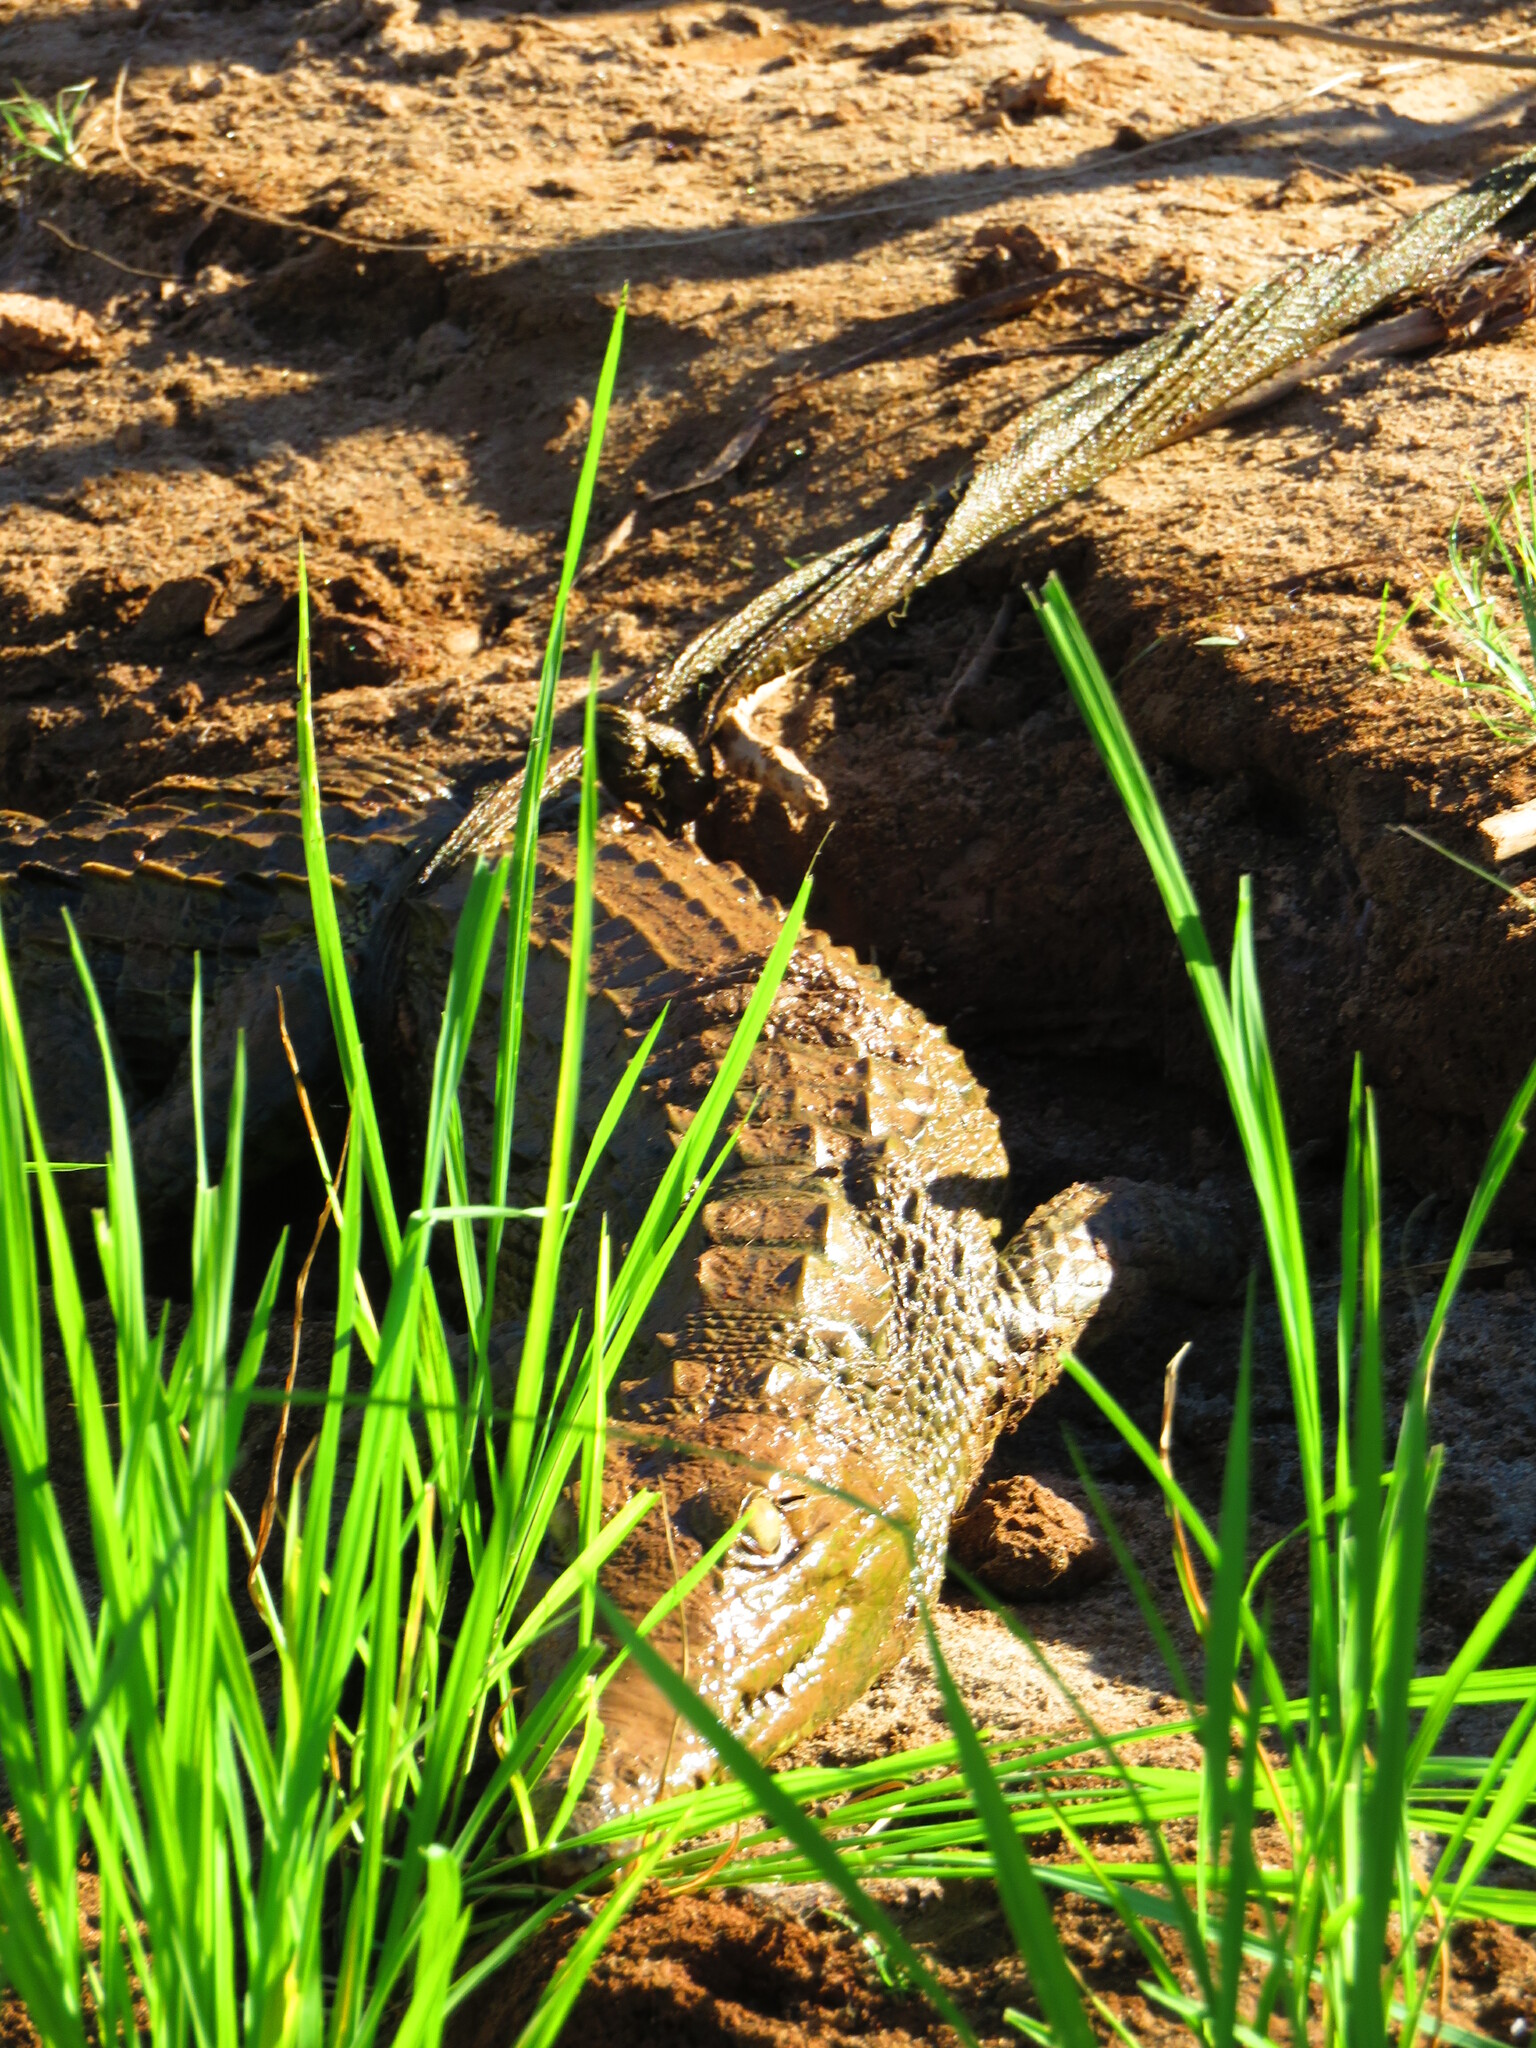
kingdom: Animalia
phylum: Chordata
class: Crocodylia
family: Crocodylidae
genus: Crocodylus
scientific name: Crocodylus niloticus
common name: Nile crocodile
